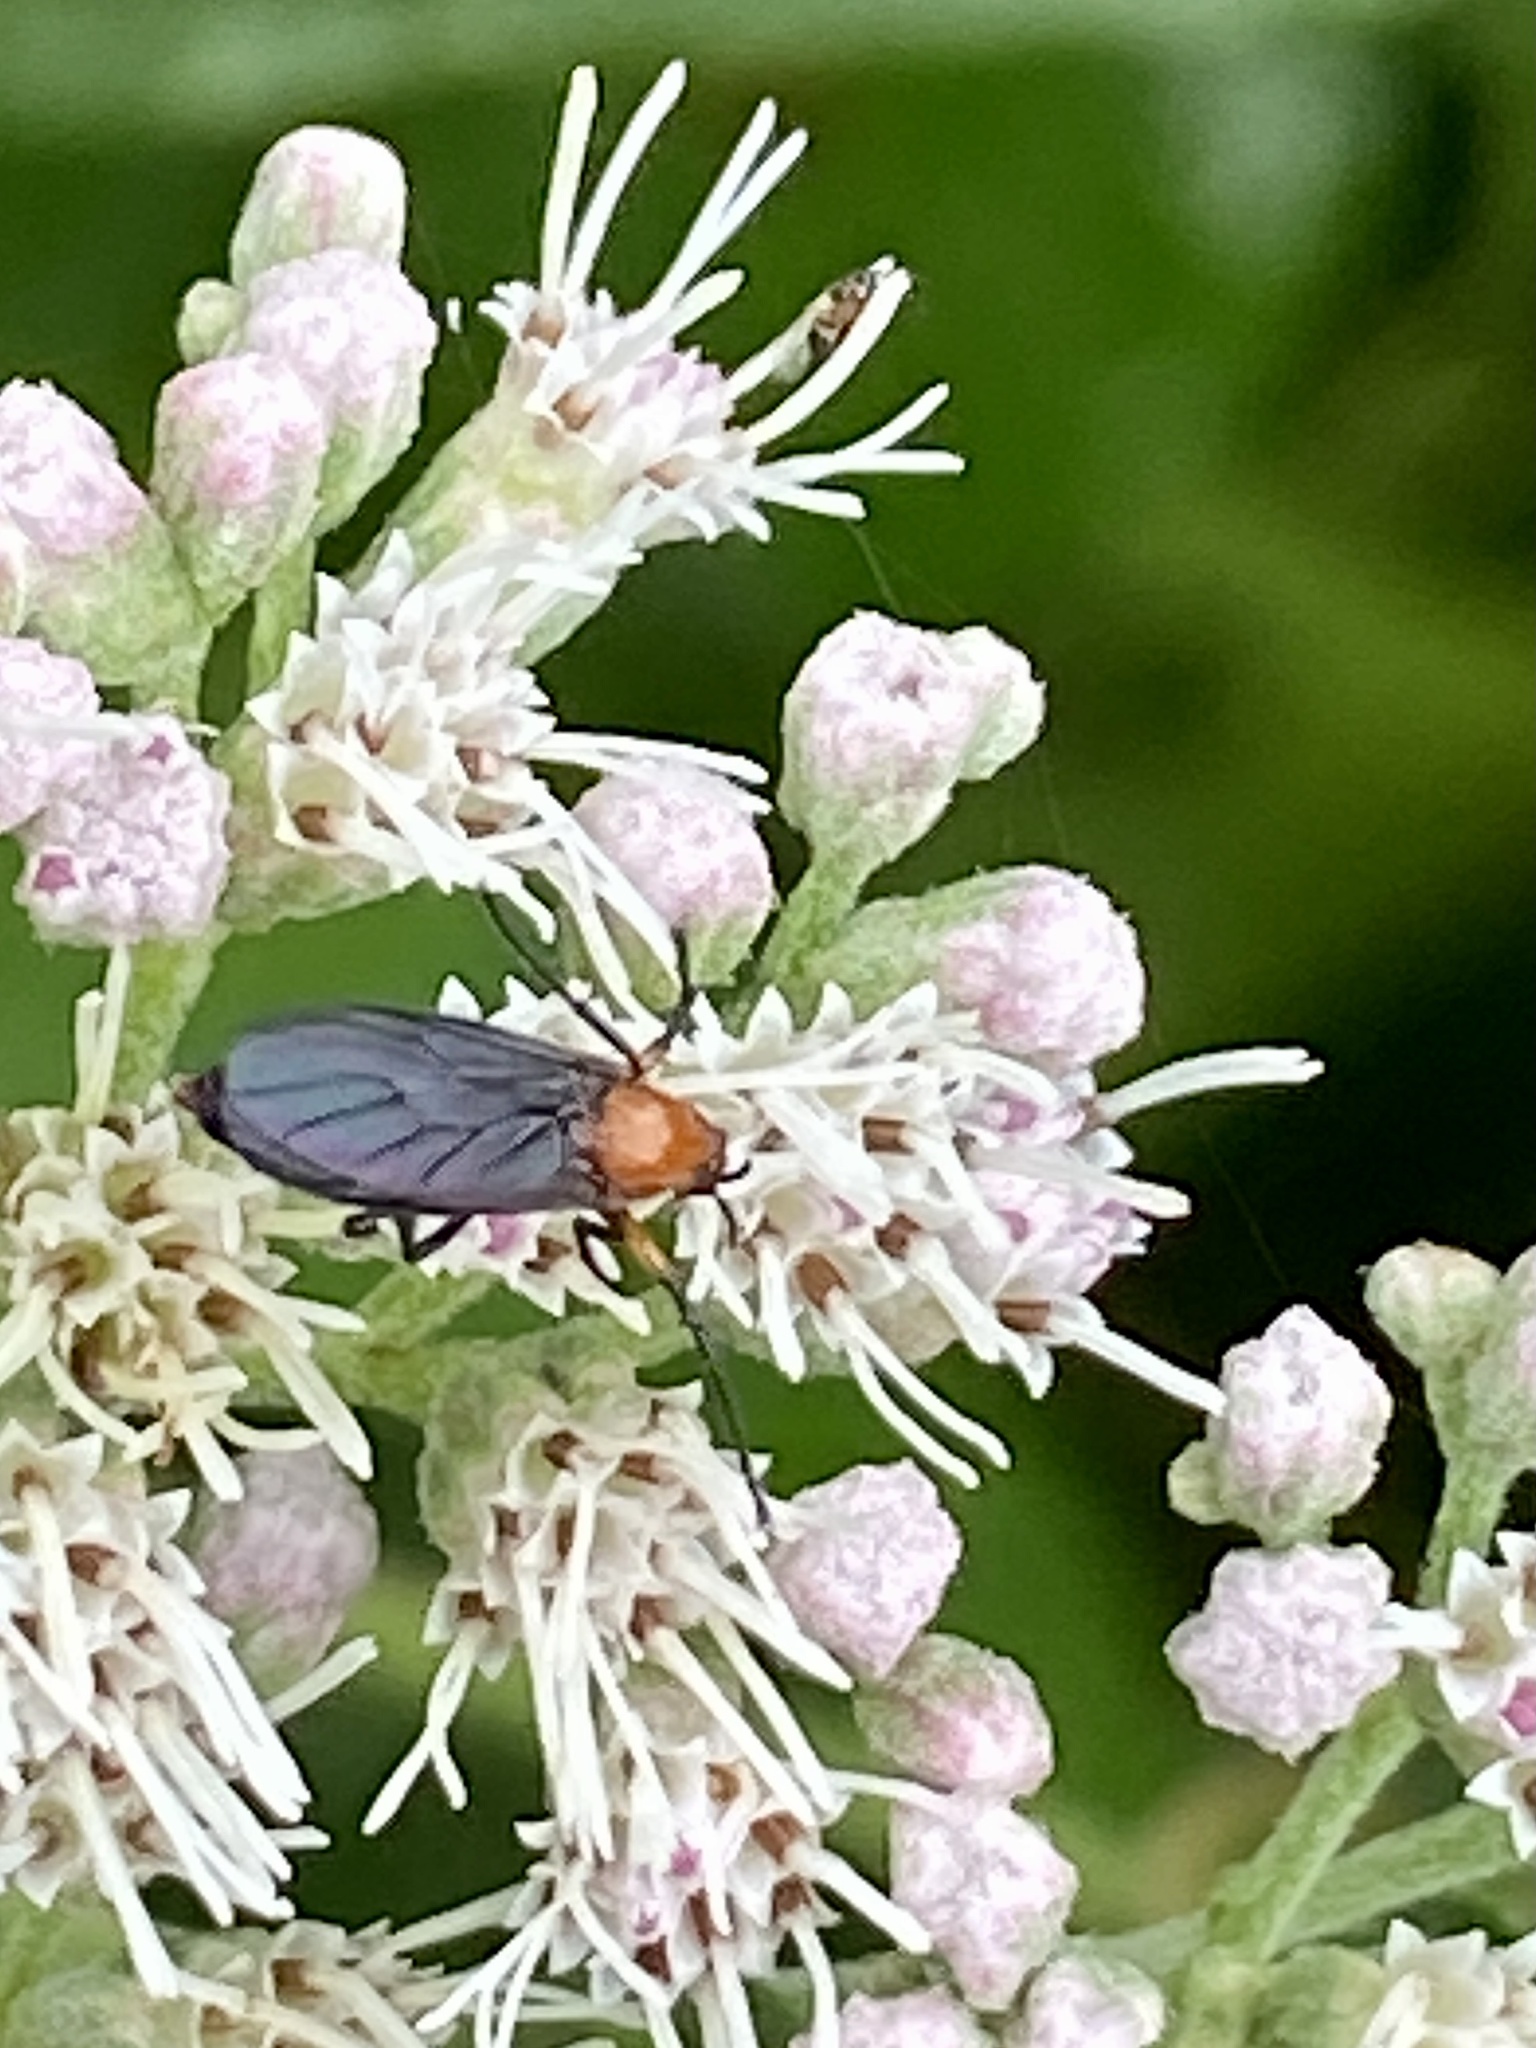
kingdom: Animalia
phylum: Arthropoda
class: Insecta
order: Diptera
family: Bibionidae
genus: Dilophus
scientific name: Dilophus spinipes
